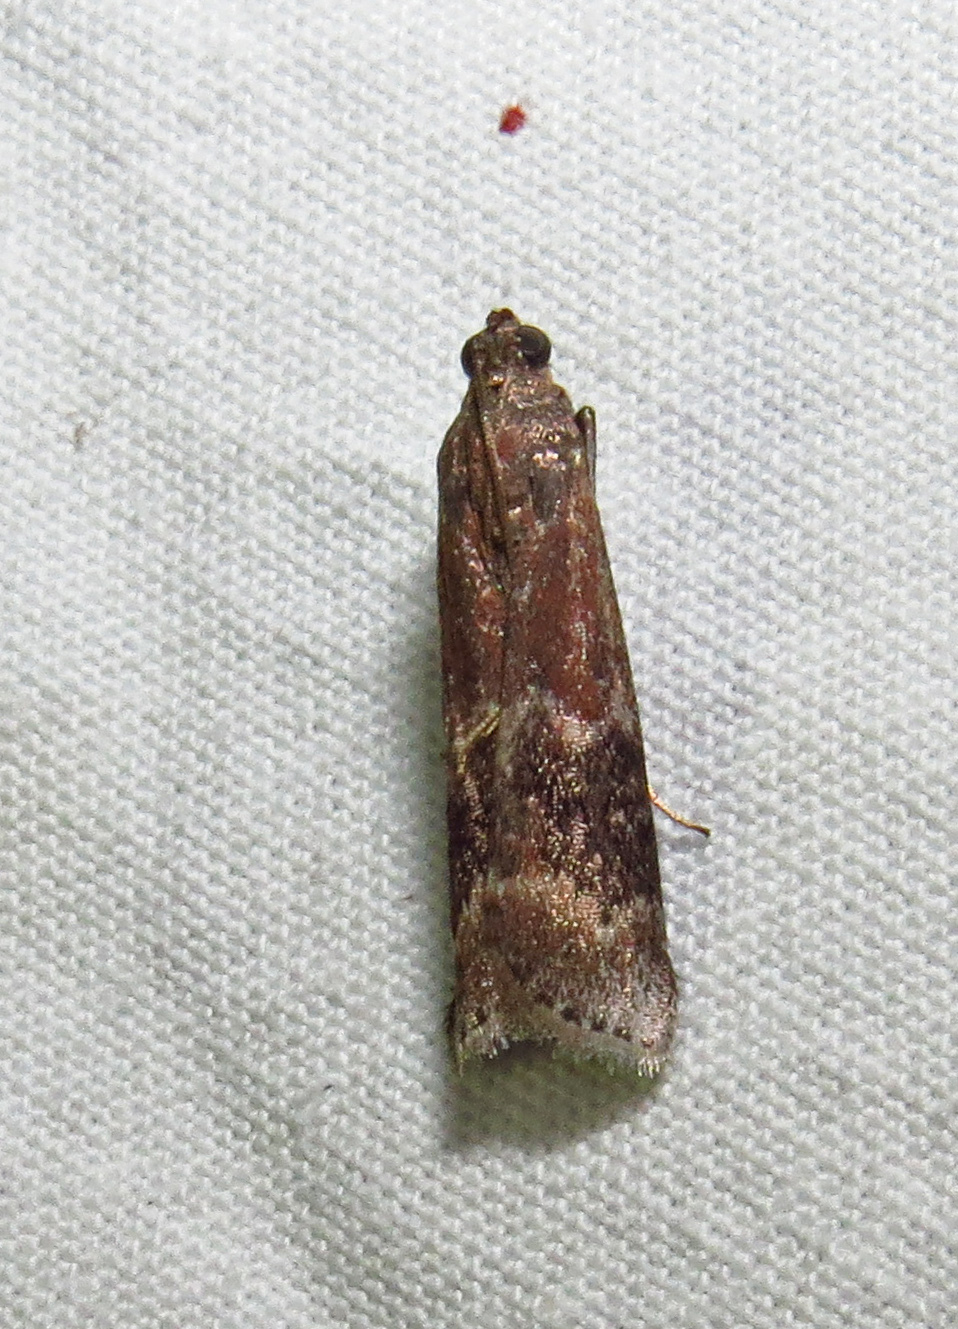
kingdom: Animalia
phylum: Arthropoda
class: Insecta
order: Lepidoptera
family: Pyralidae
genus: Euzophera
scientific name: Euzophera semifuneralis
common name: American plum borer moth
